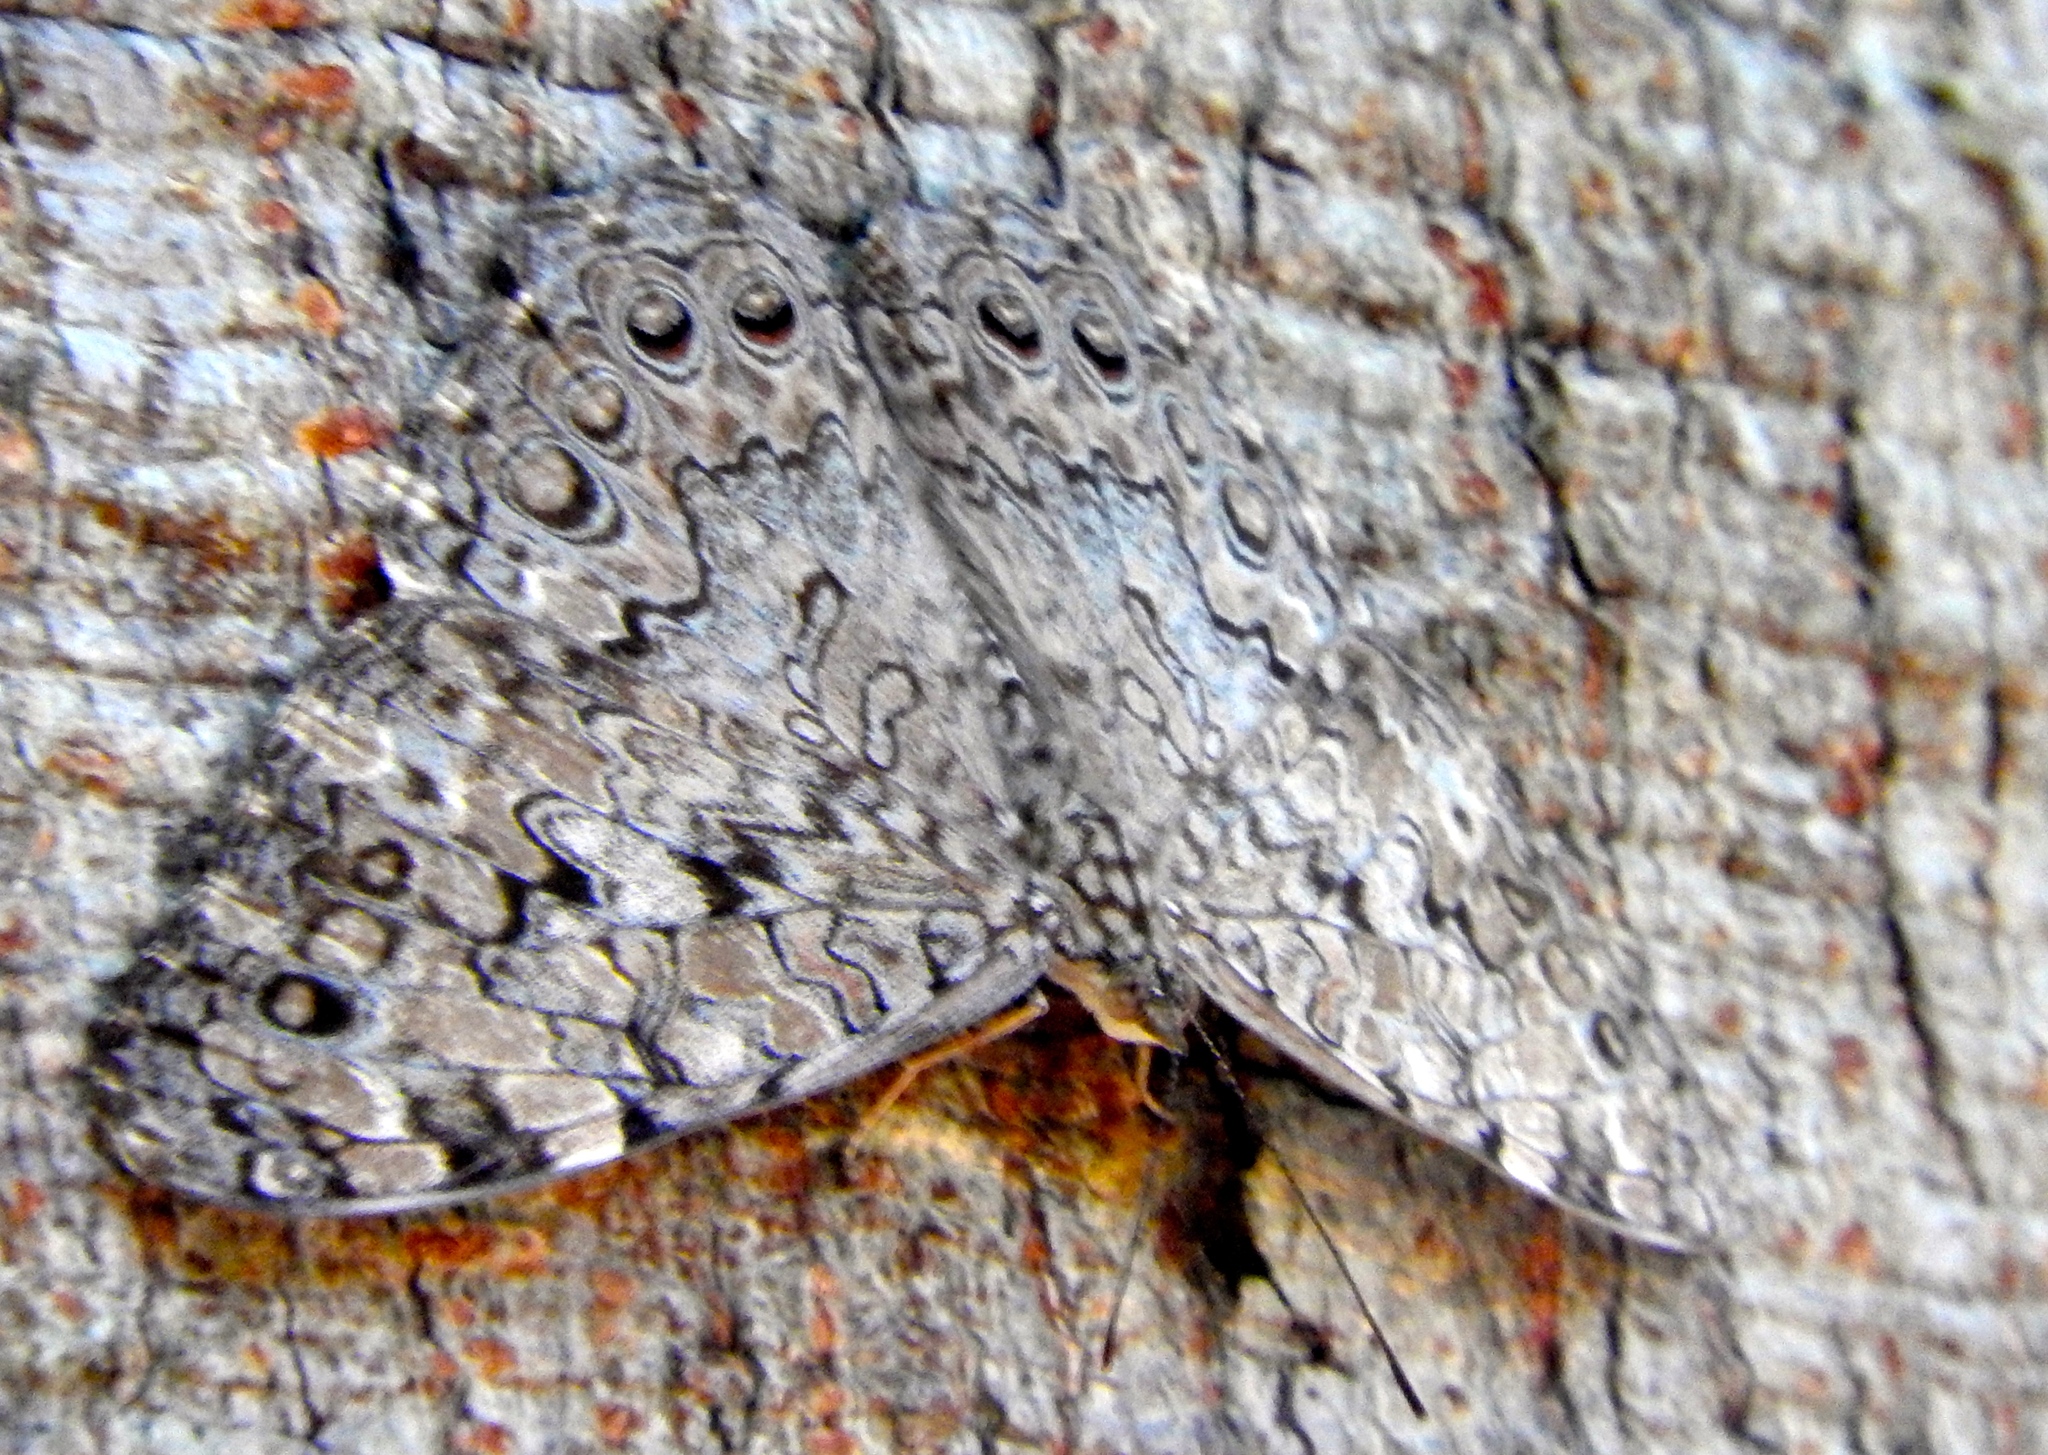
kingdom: Animalia
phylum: Arthropoda
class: Insecta
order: Lepidoptera
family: Nymphalidae
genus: Hamadryas
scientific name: Hamadryas februa
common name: Gray cracker
